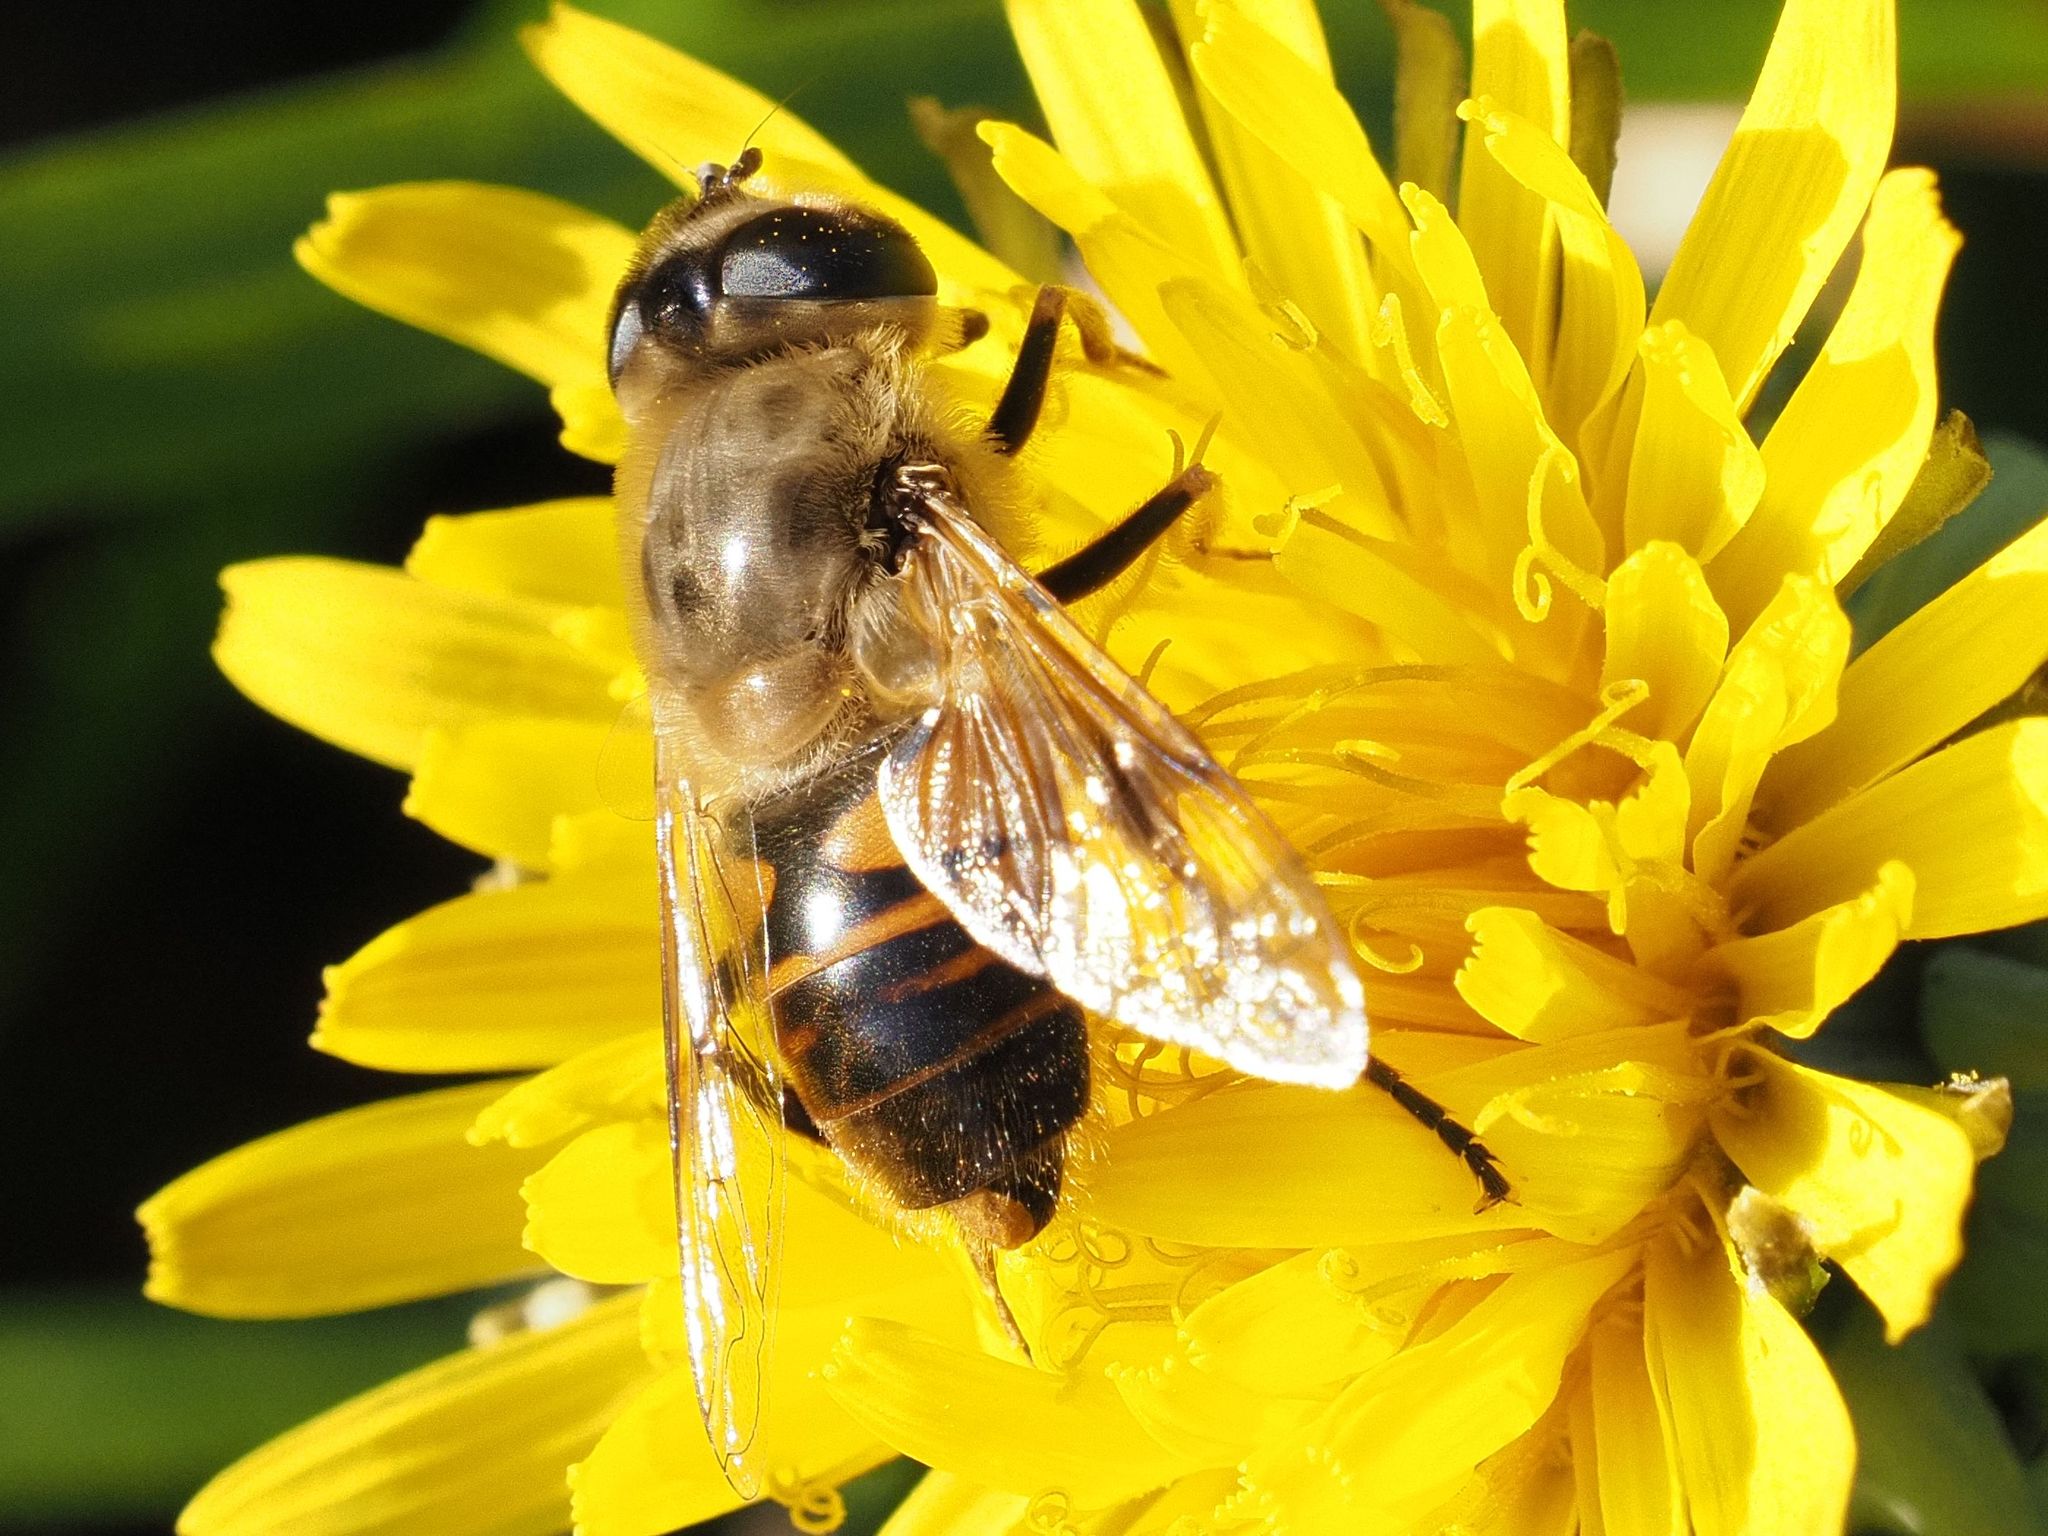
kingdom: Animalia
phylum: Arthropoda
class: Insecta
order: Diptera
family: Syrphidae
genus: Eristalis
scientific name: Eristalis tenax
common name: Drone fly
